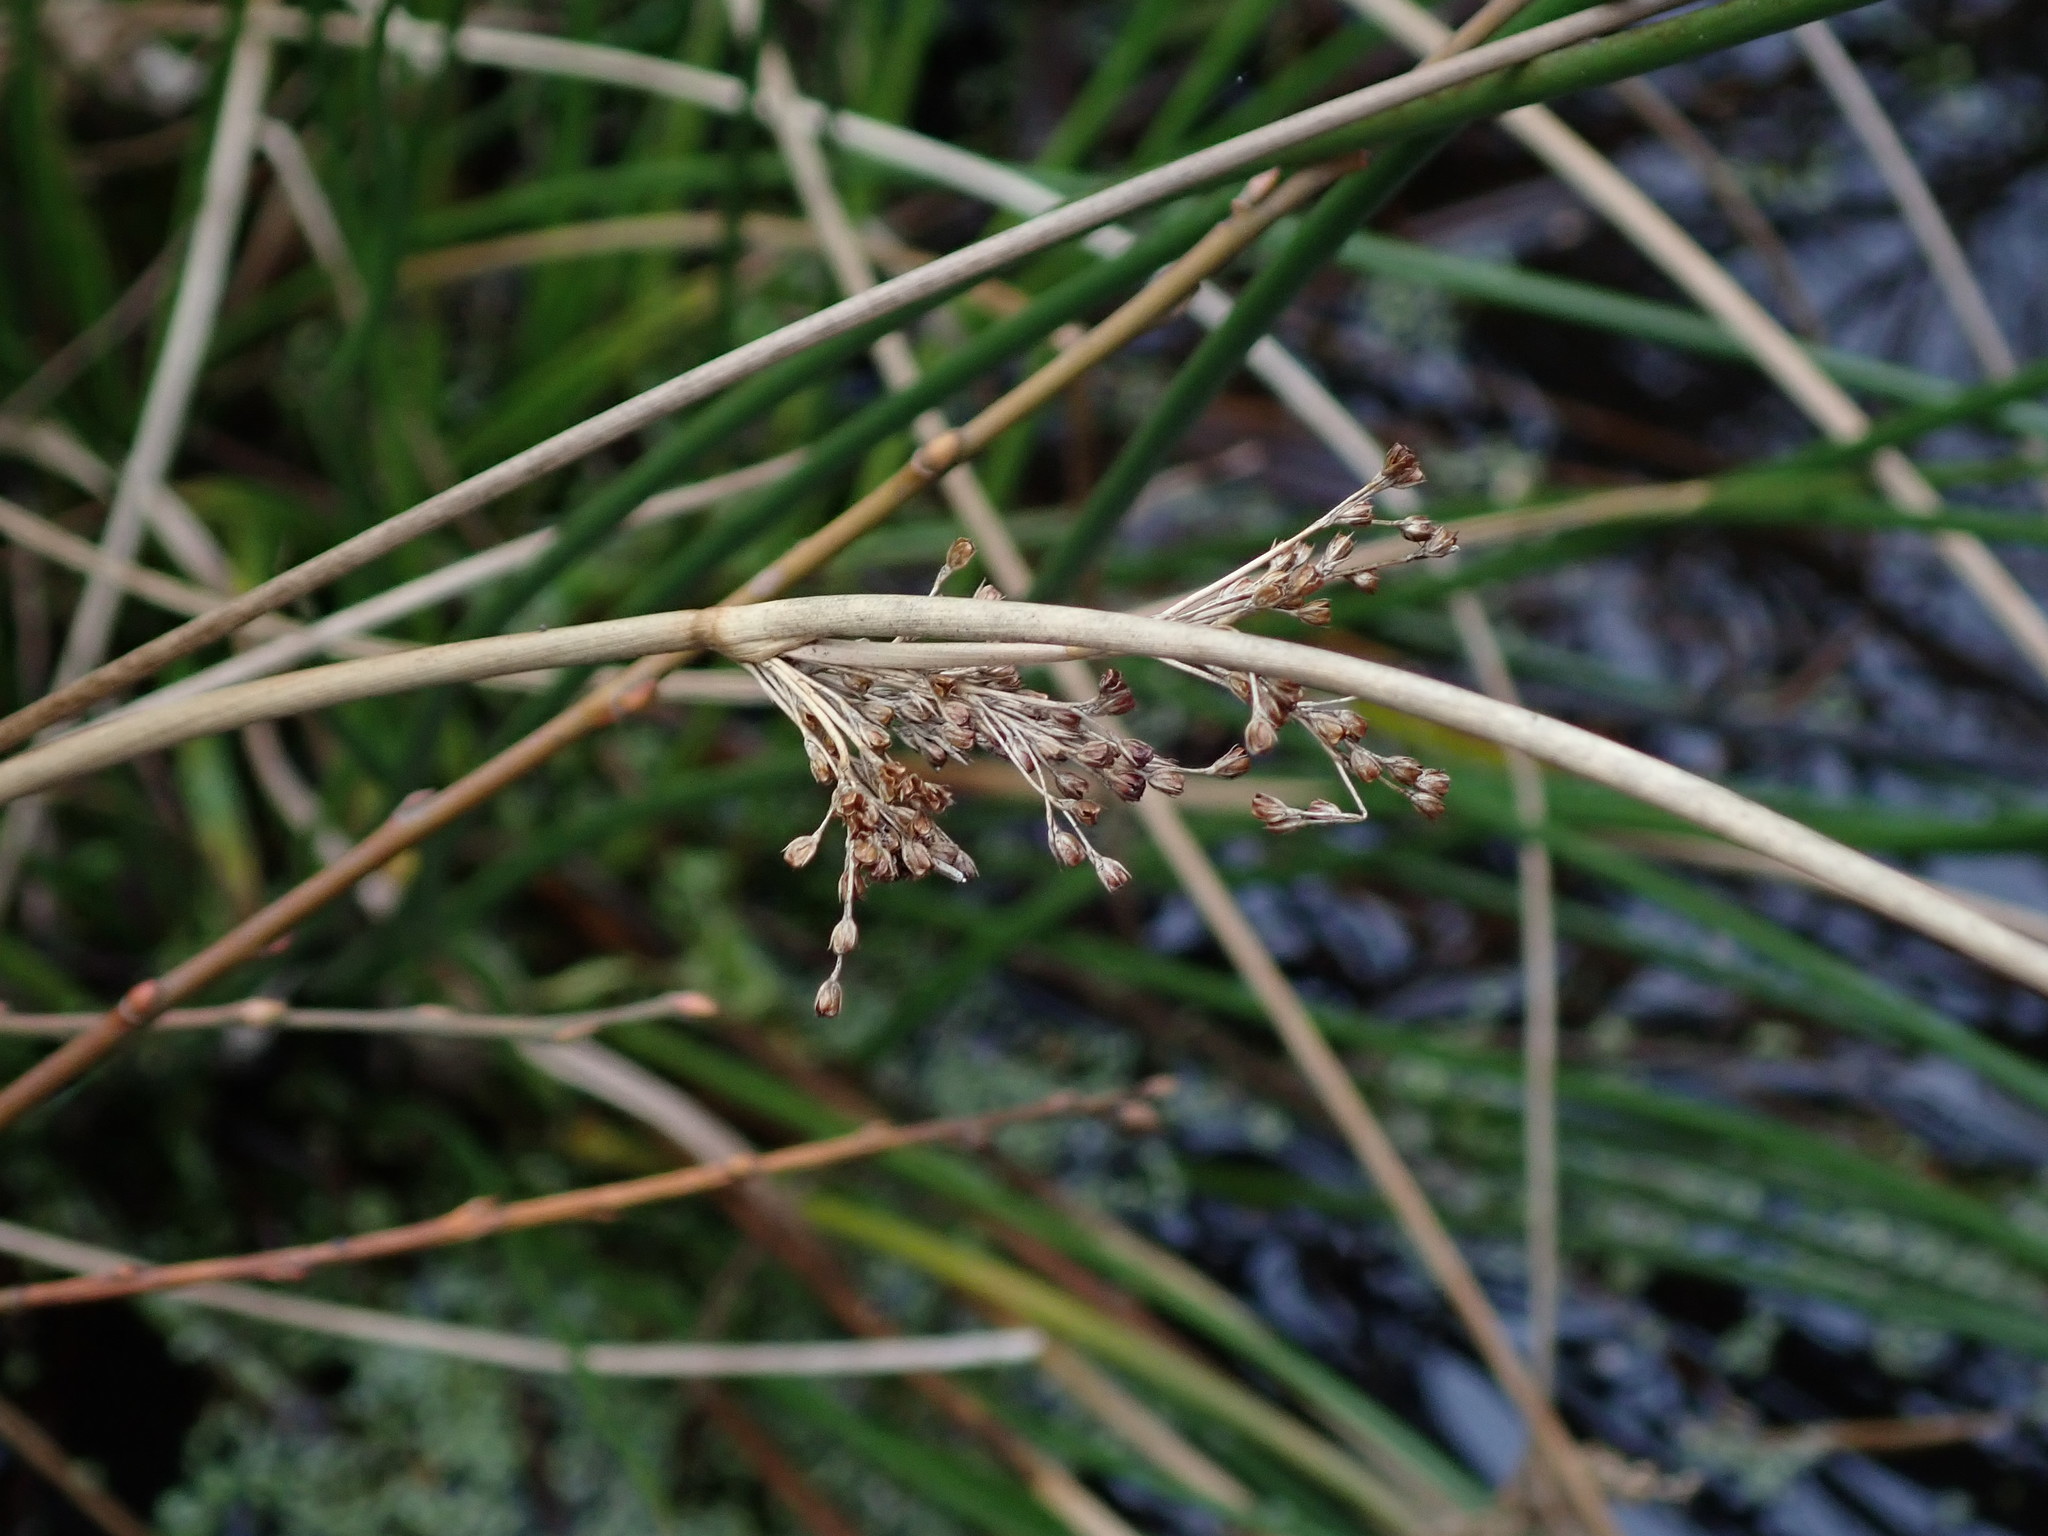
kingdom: Plantae
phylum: Tracheophyta
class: Liliopsida
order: Poales
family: Juncaceae
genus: Juncus
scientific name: Juncus effusus
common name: Soft rush
